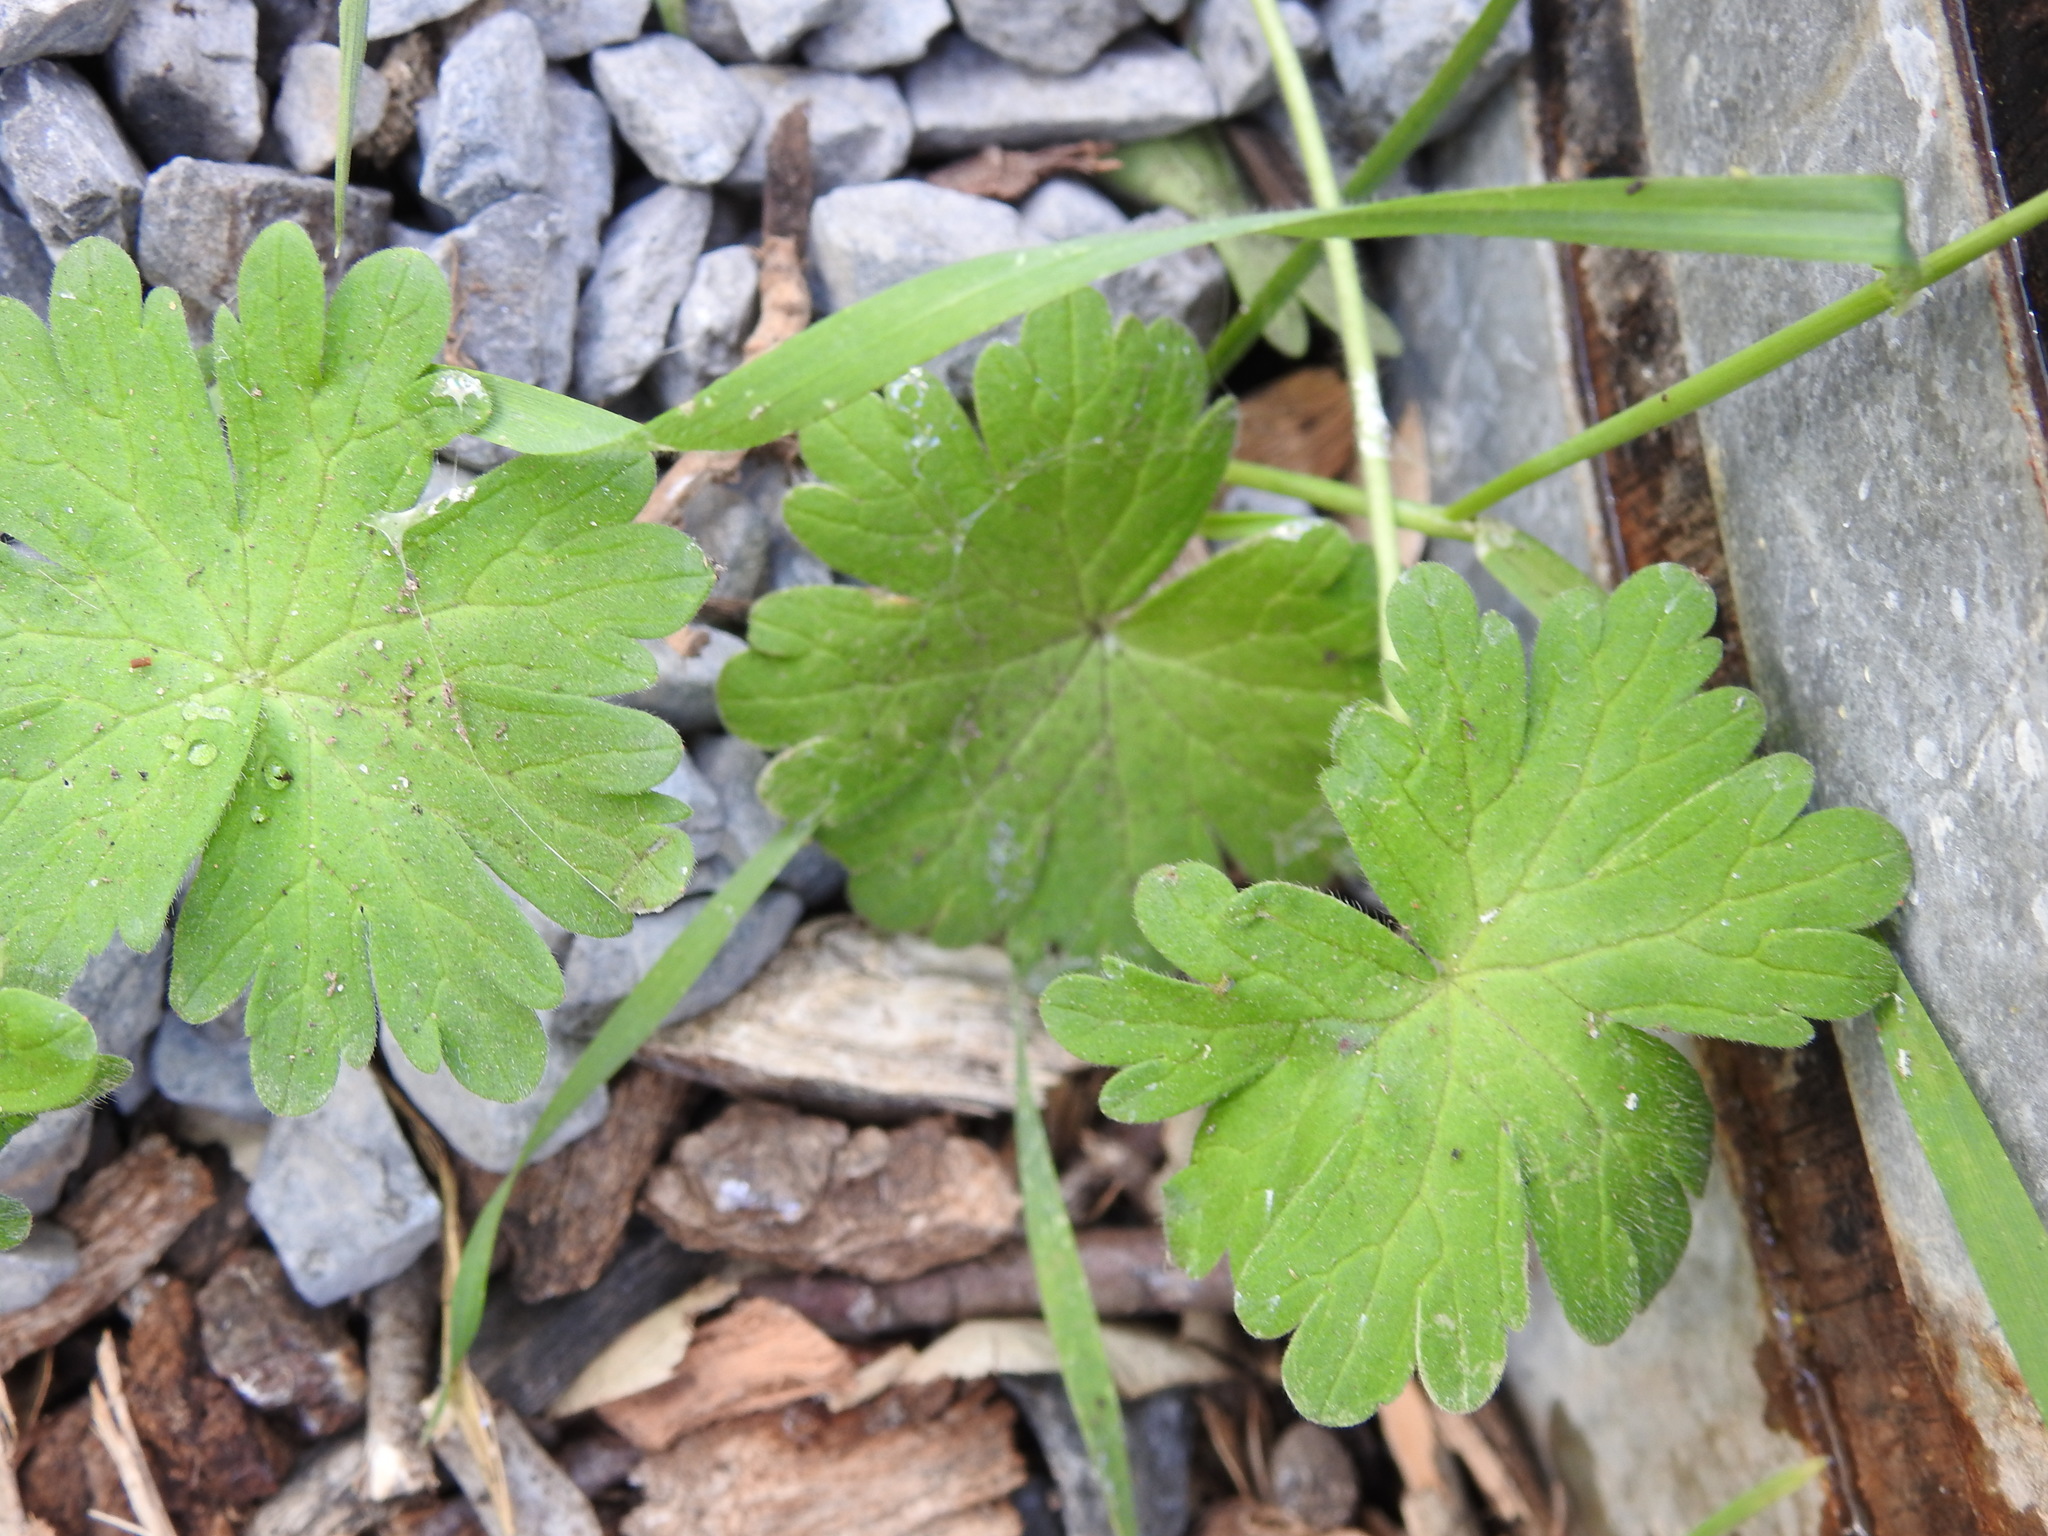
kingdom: Plantae
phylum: Tracheophyta
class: Magnoliopsida
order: Geraniales
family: Geraniaceae
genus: Geranium
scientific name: Geranium
